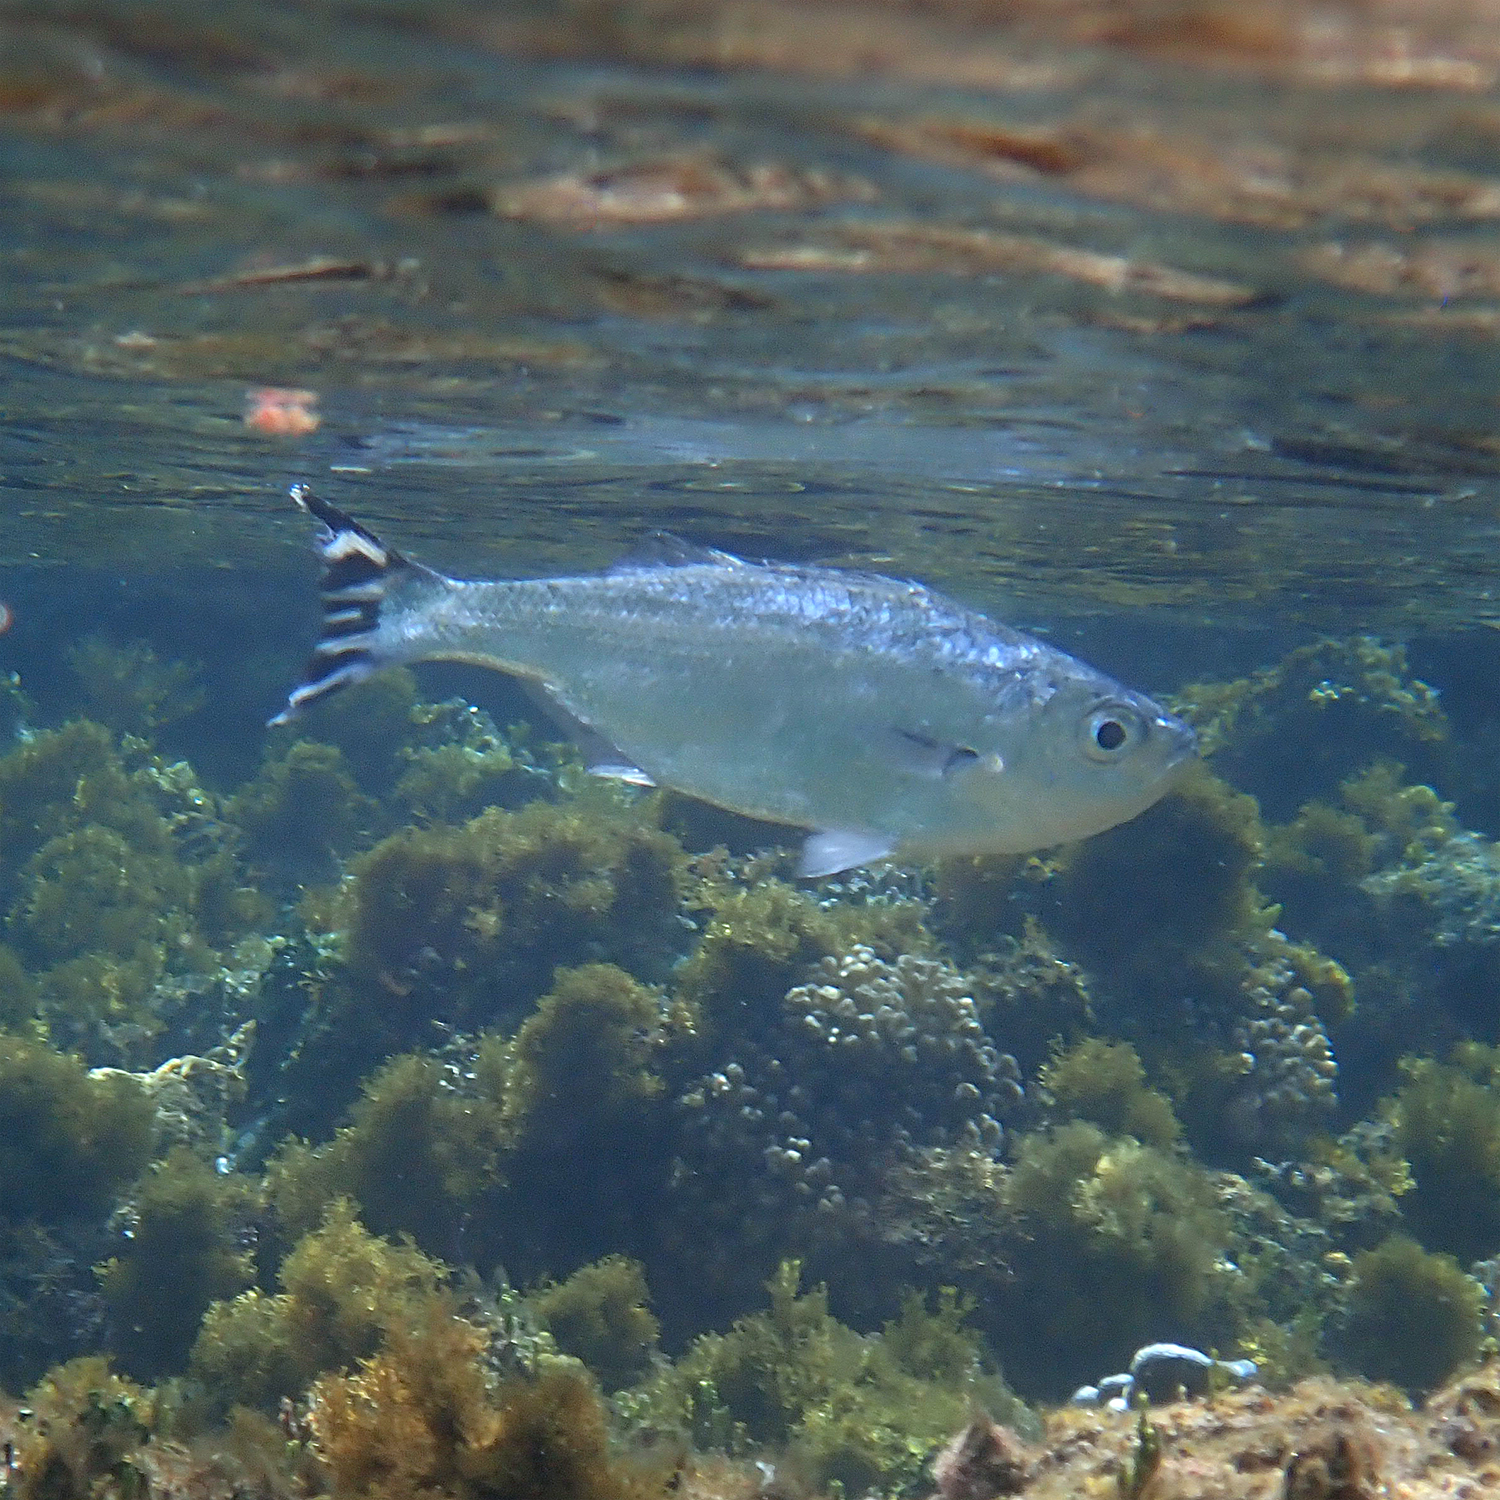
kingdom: Animalia
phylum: Chordata
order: Perciformes
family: Kuhliidae
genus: Kuhlia
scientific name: Kuhlia mugil
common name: Barred flagtail
